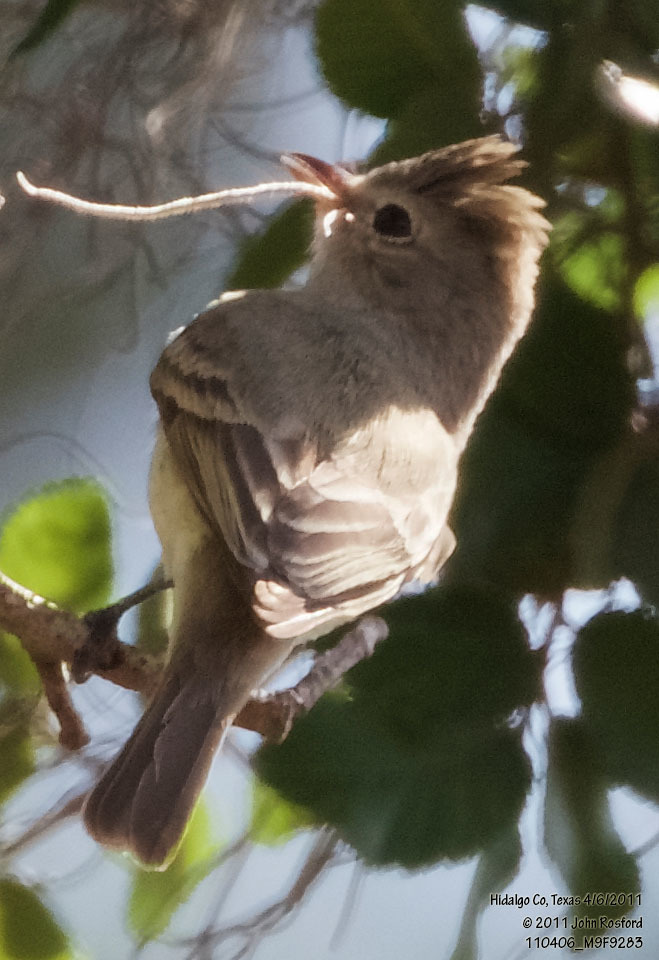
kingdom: Animalia
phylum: Chordata
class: Aves
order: Passeriformes
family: Tyrannidae
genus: Camptostoma
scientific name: Camptostoma imberbe
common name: Northern beardless-tyrannulet
